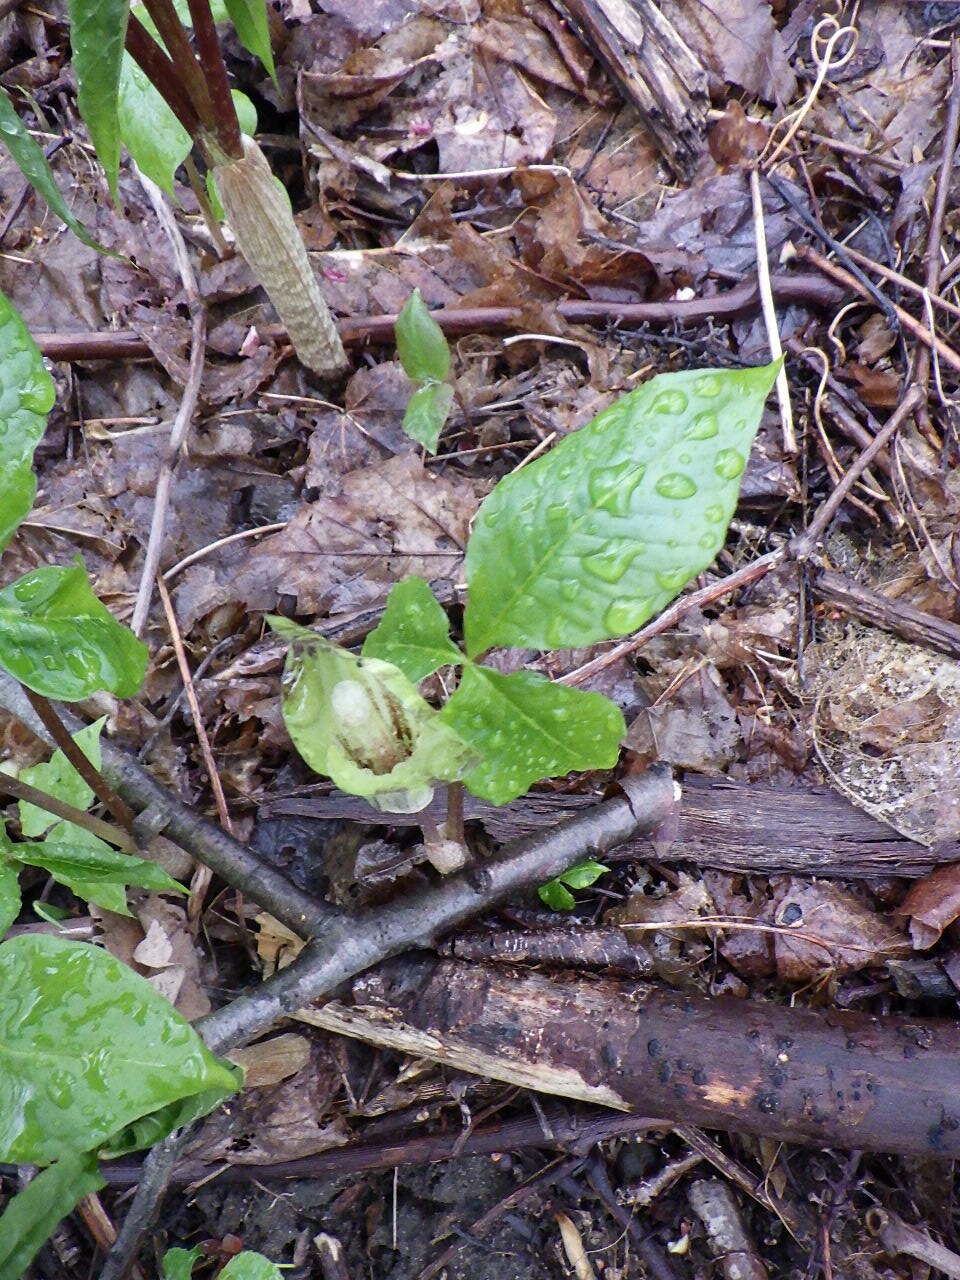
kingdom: Plantae
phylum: Tracheophyta
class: Liliopsida
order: Alismatales
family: Araceae
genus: Arisaema
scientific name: Arisaema triphyllum
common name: Jack-in-the-pulpit
